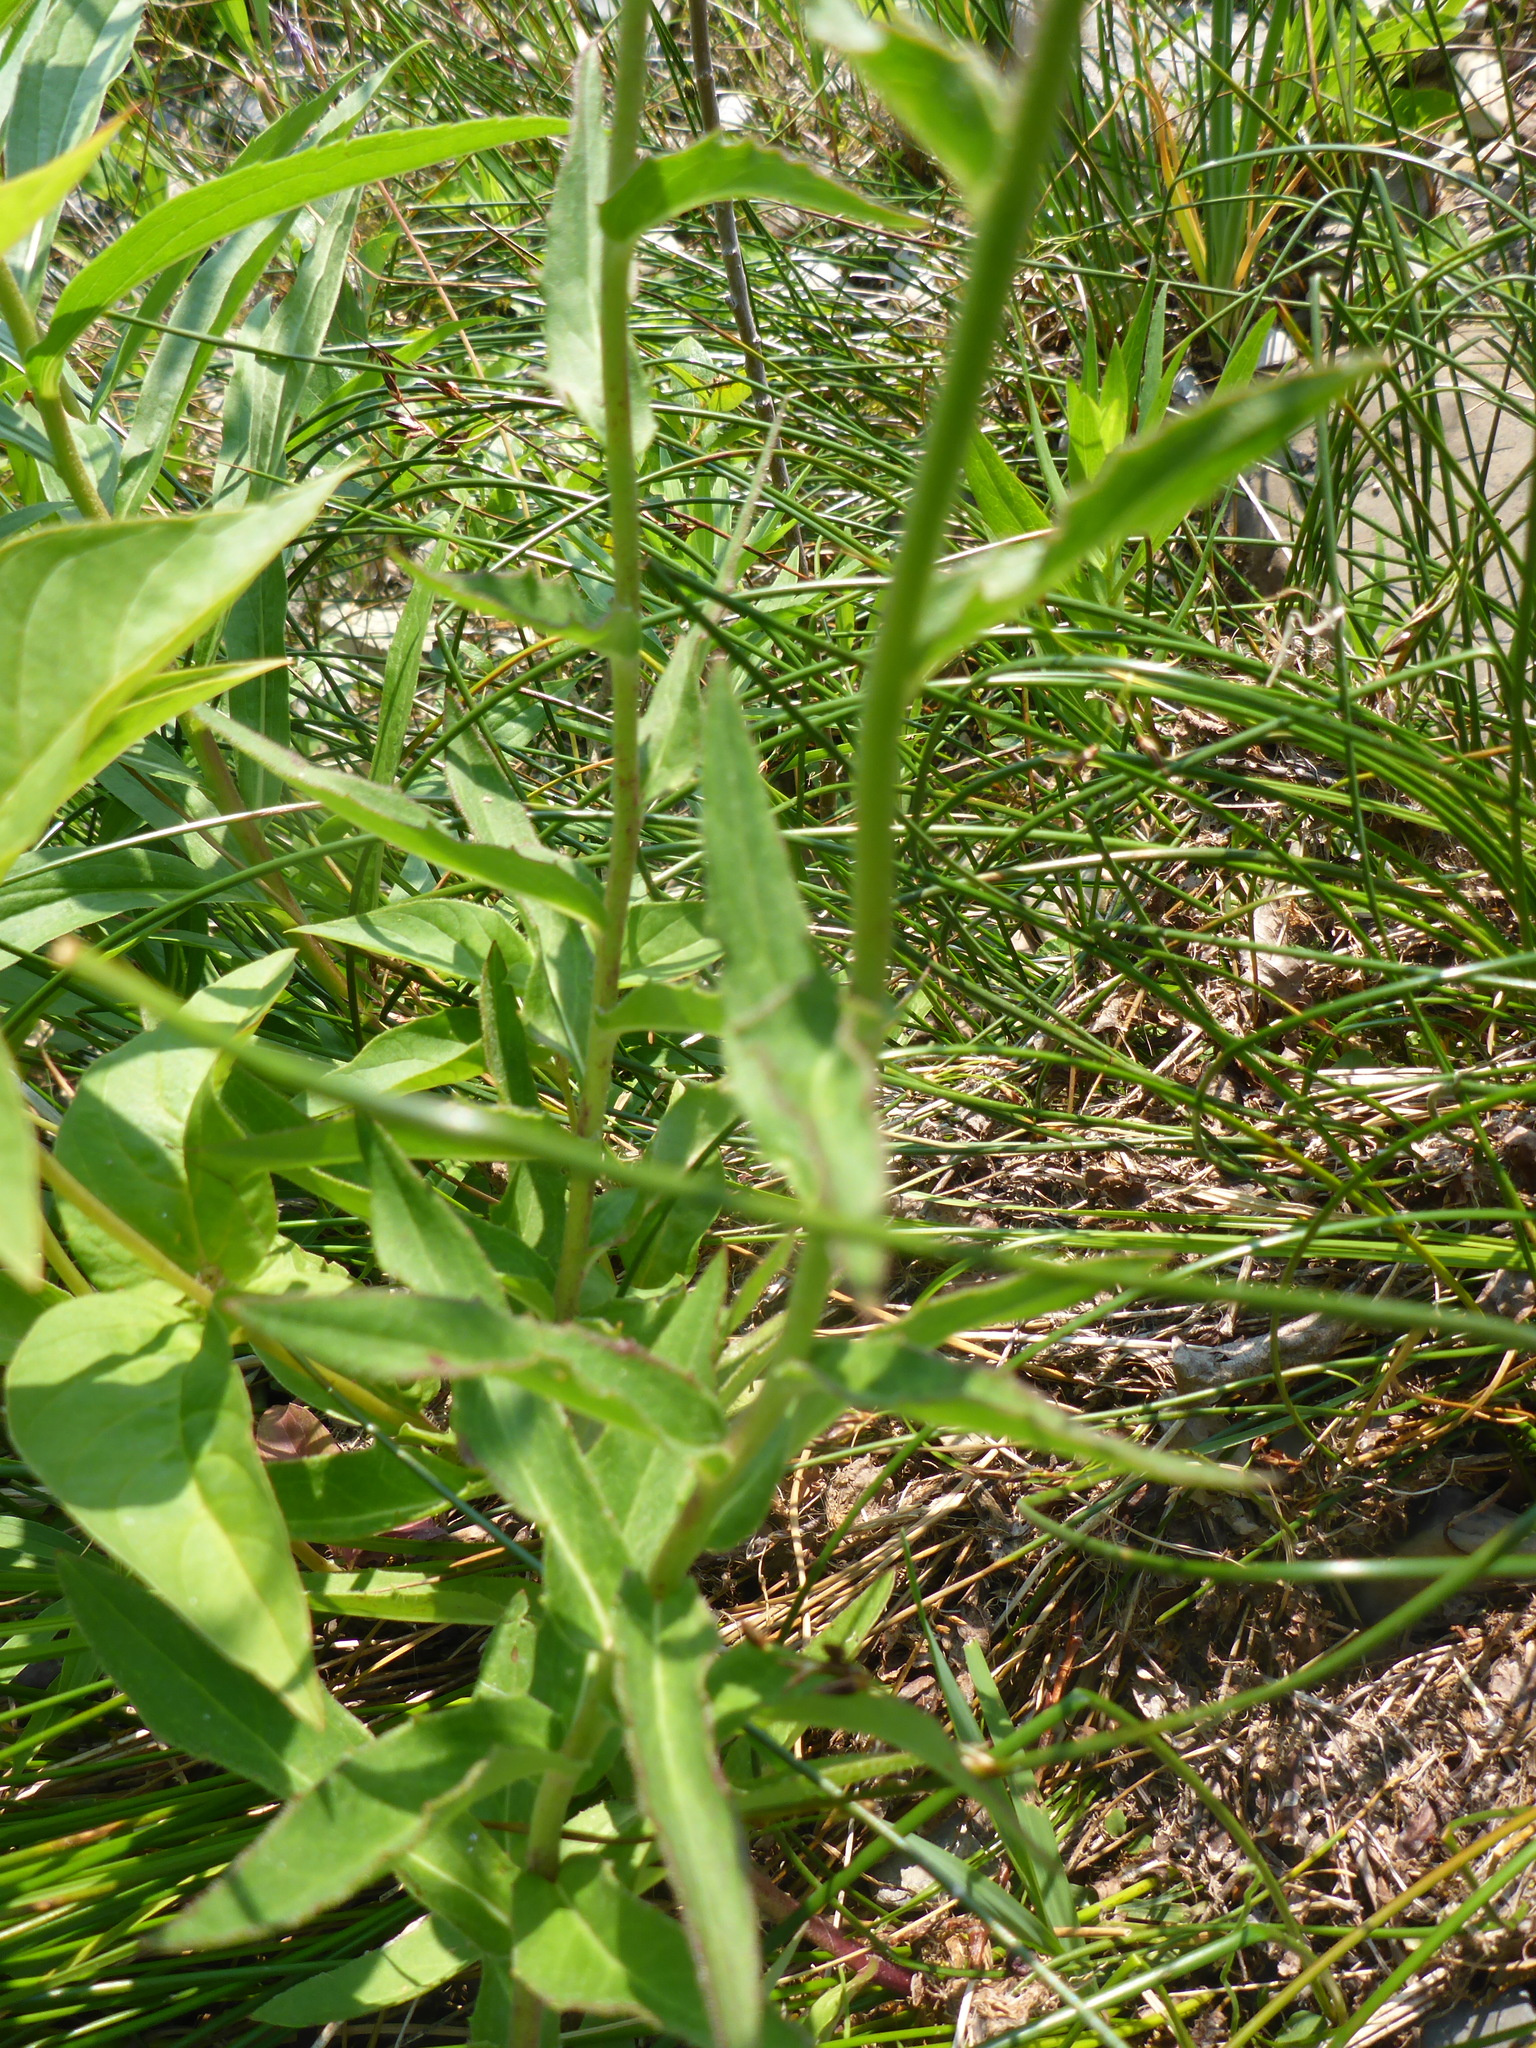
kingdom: Plantae
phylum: Tracheophyta
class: Magnoliopsida
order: Asterales
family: Asteraceae
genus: Hieracium
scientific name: Hieracium umbellatum
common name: Northern hawkweed
